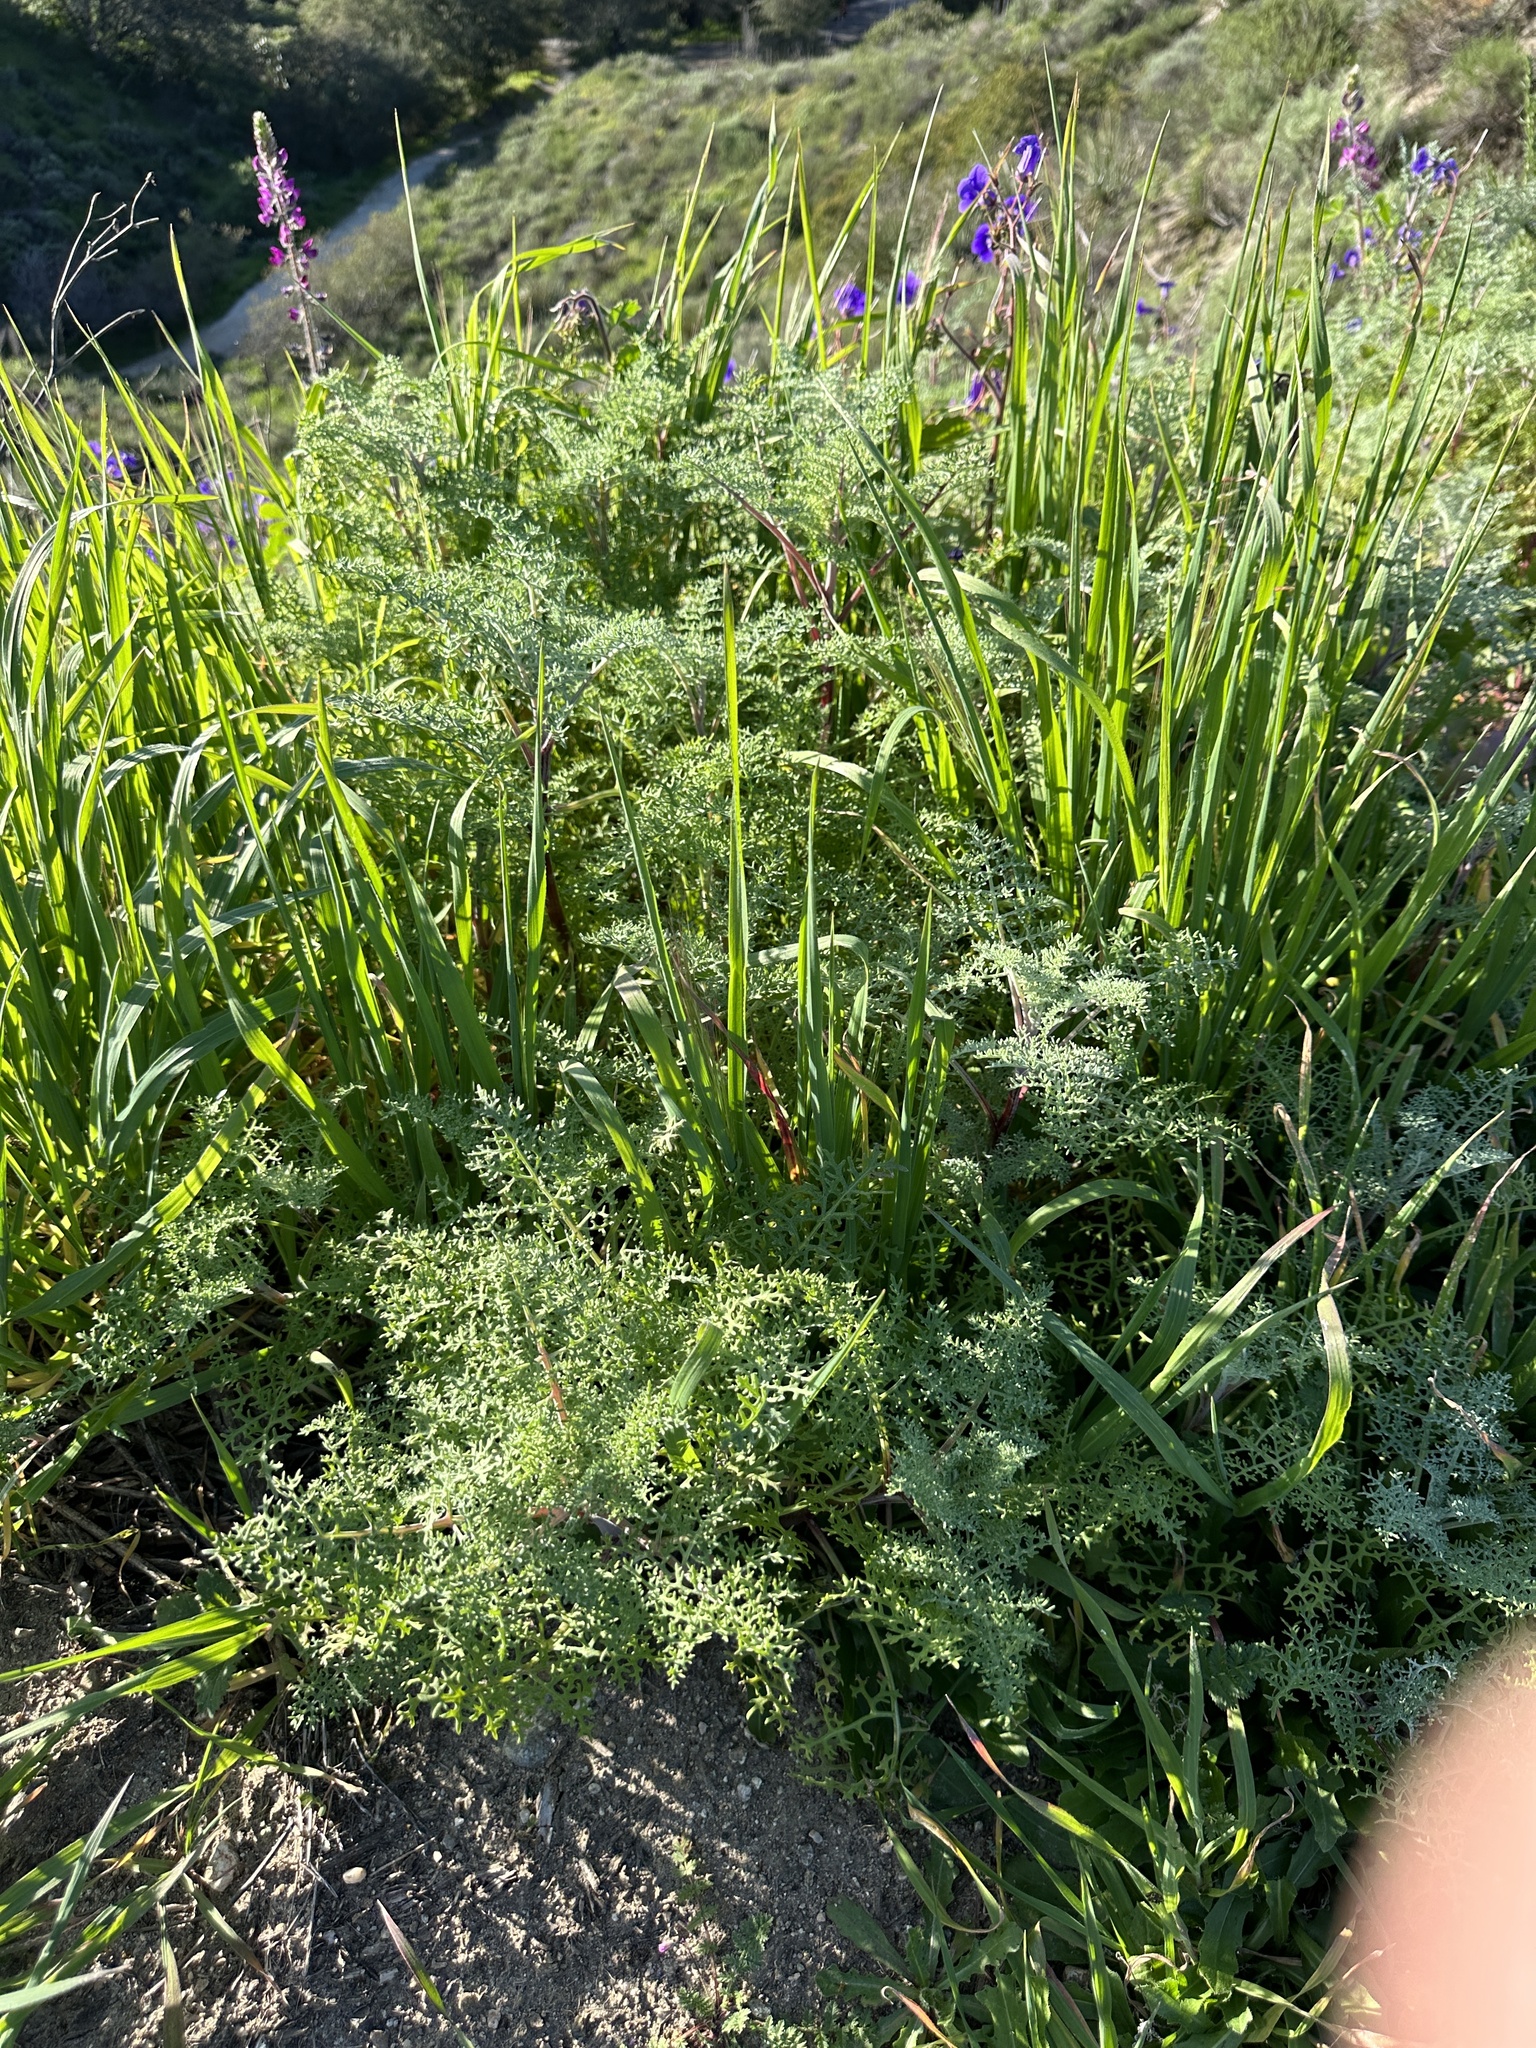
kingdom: Plantae
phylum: Tracheophyta
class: Magnoliopsida
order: Asterales
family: Asteraceae
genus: Chaenactis
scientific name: Chaenactis artemisiifolia
